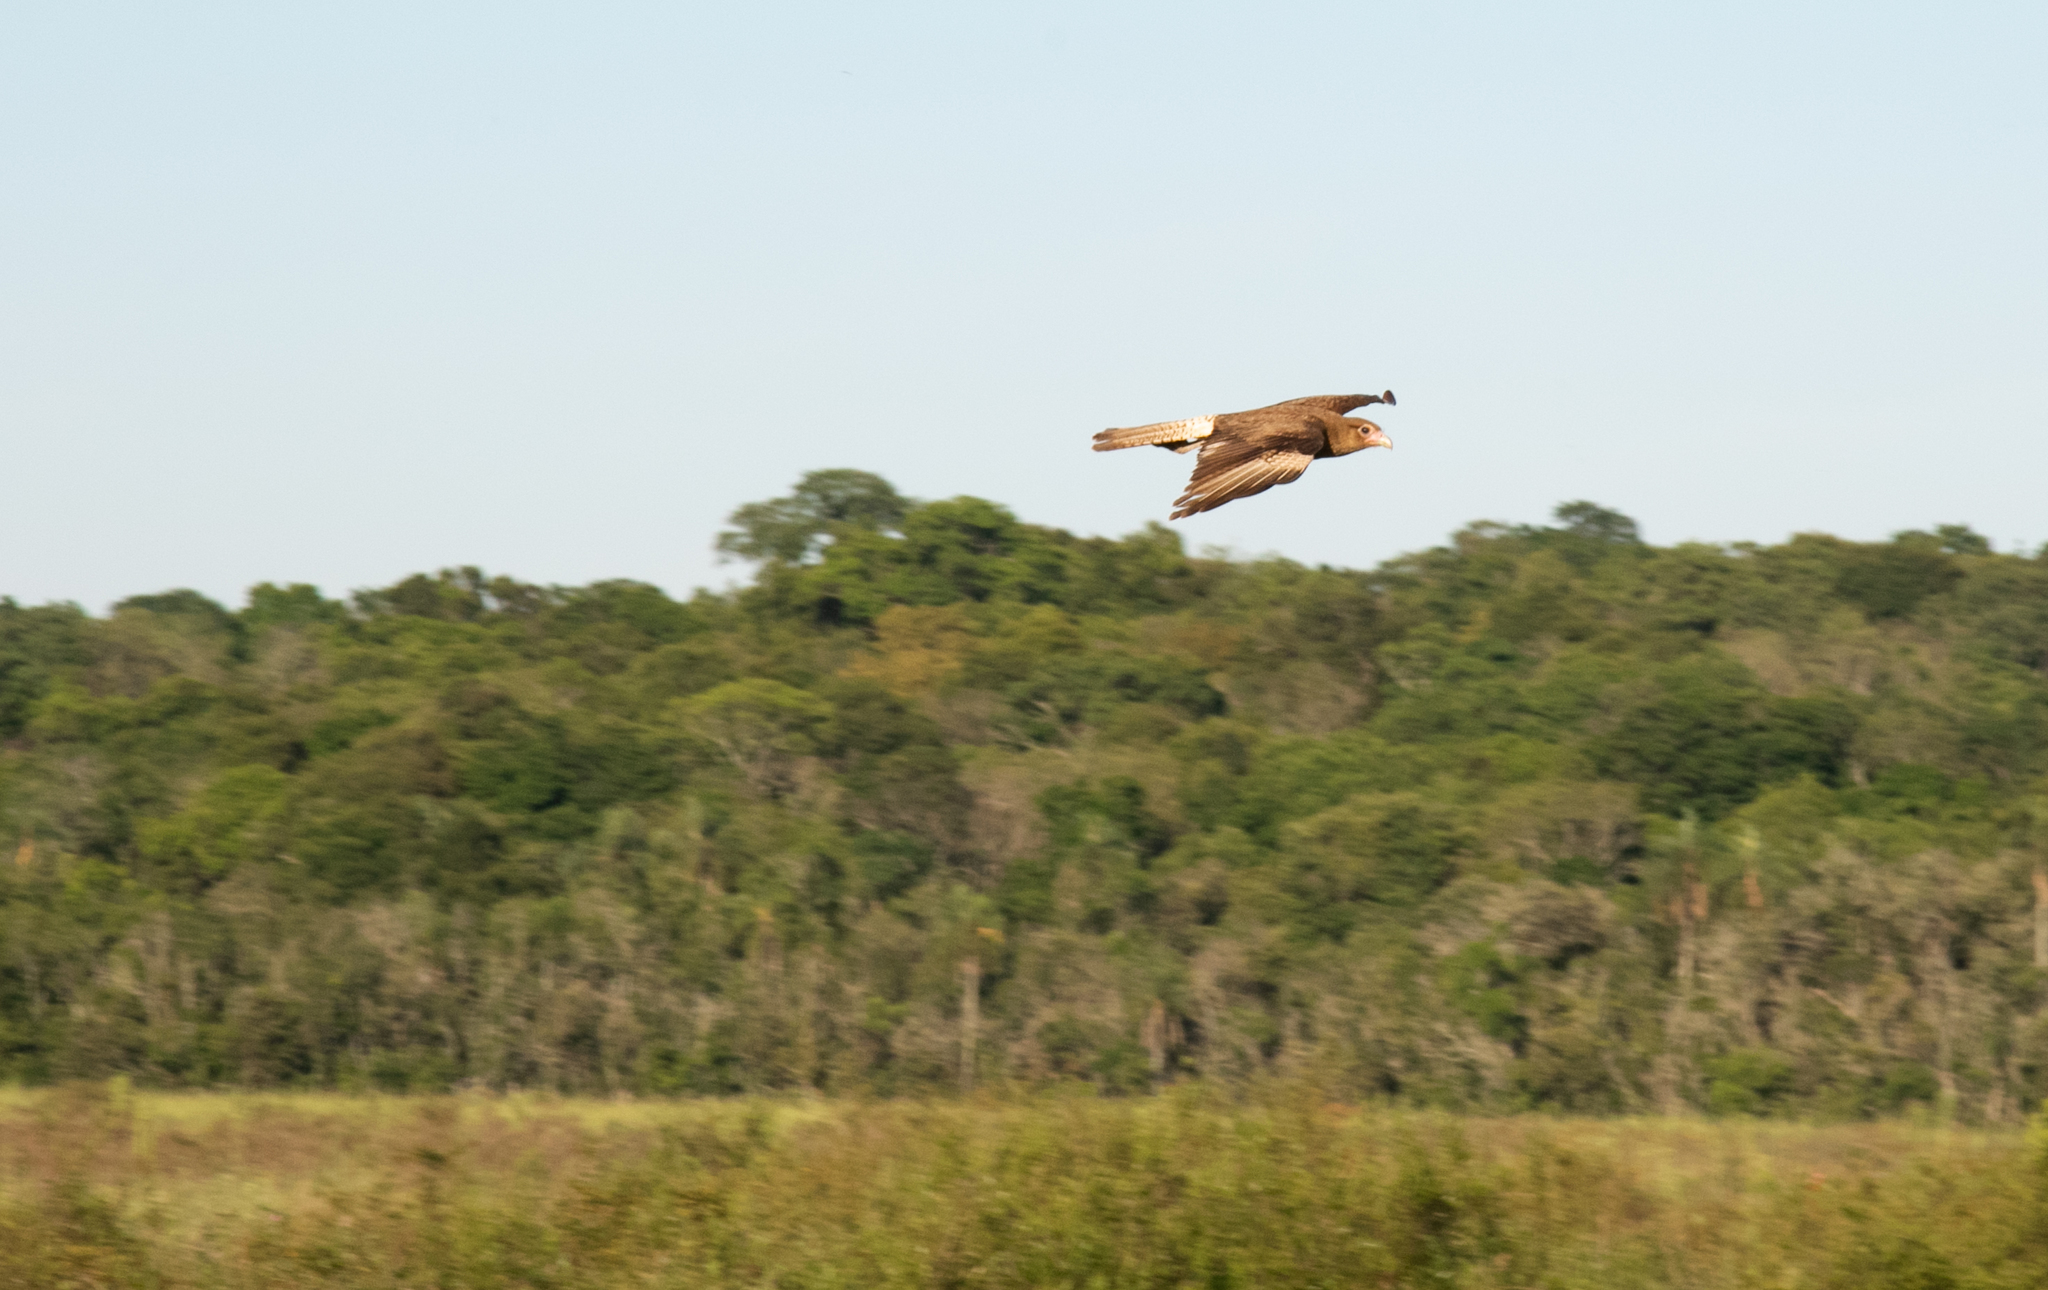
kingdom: Animalia
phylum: Chordata
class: Aves
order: Falconiformes
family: Falconidae
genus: Daptrius
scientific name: Daptrius
